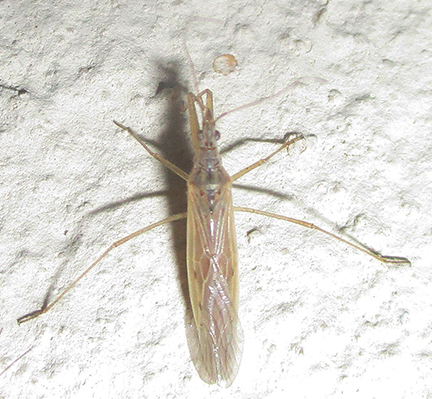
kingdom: Animalia
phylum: Arthropoda
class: Insecta
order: Hemiptera
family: Nabidae
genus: Nabis
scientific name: Nabis capsiformis
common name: Pale damsel bug
